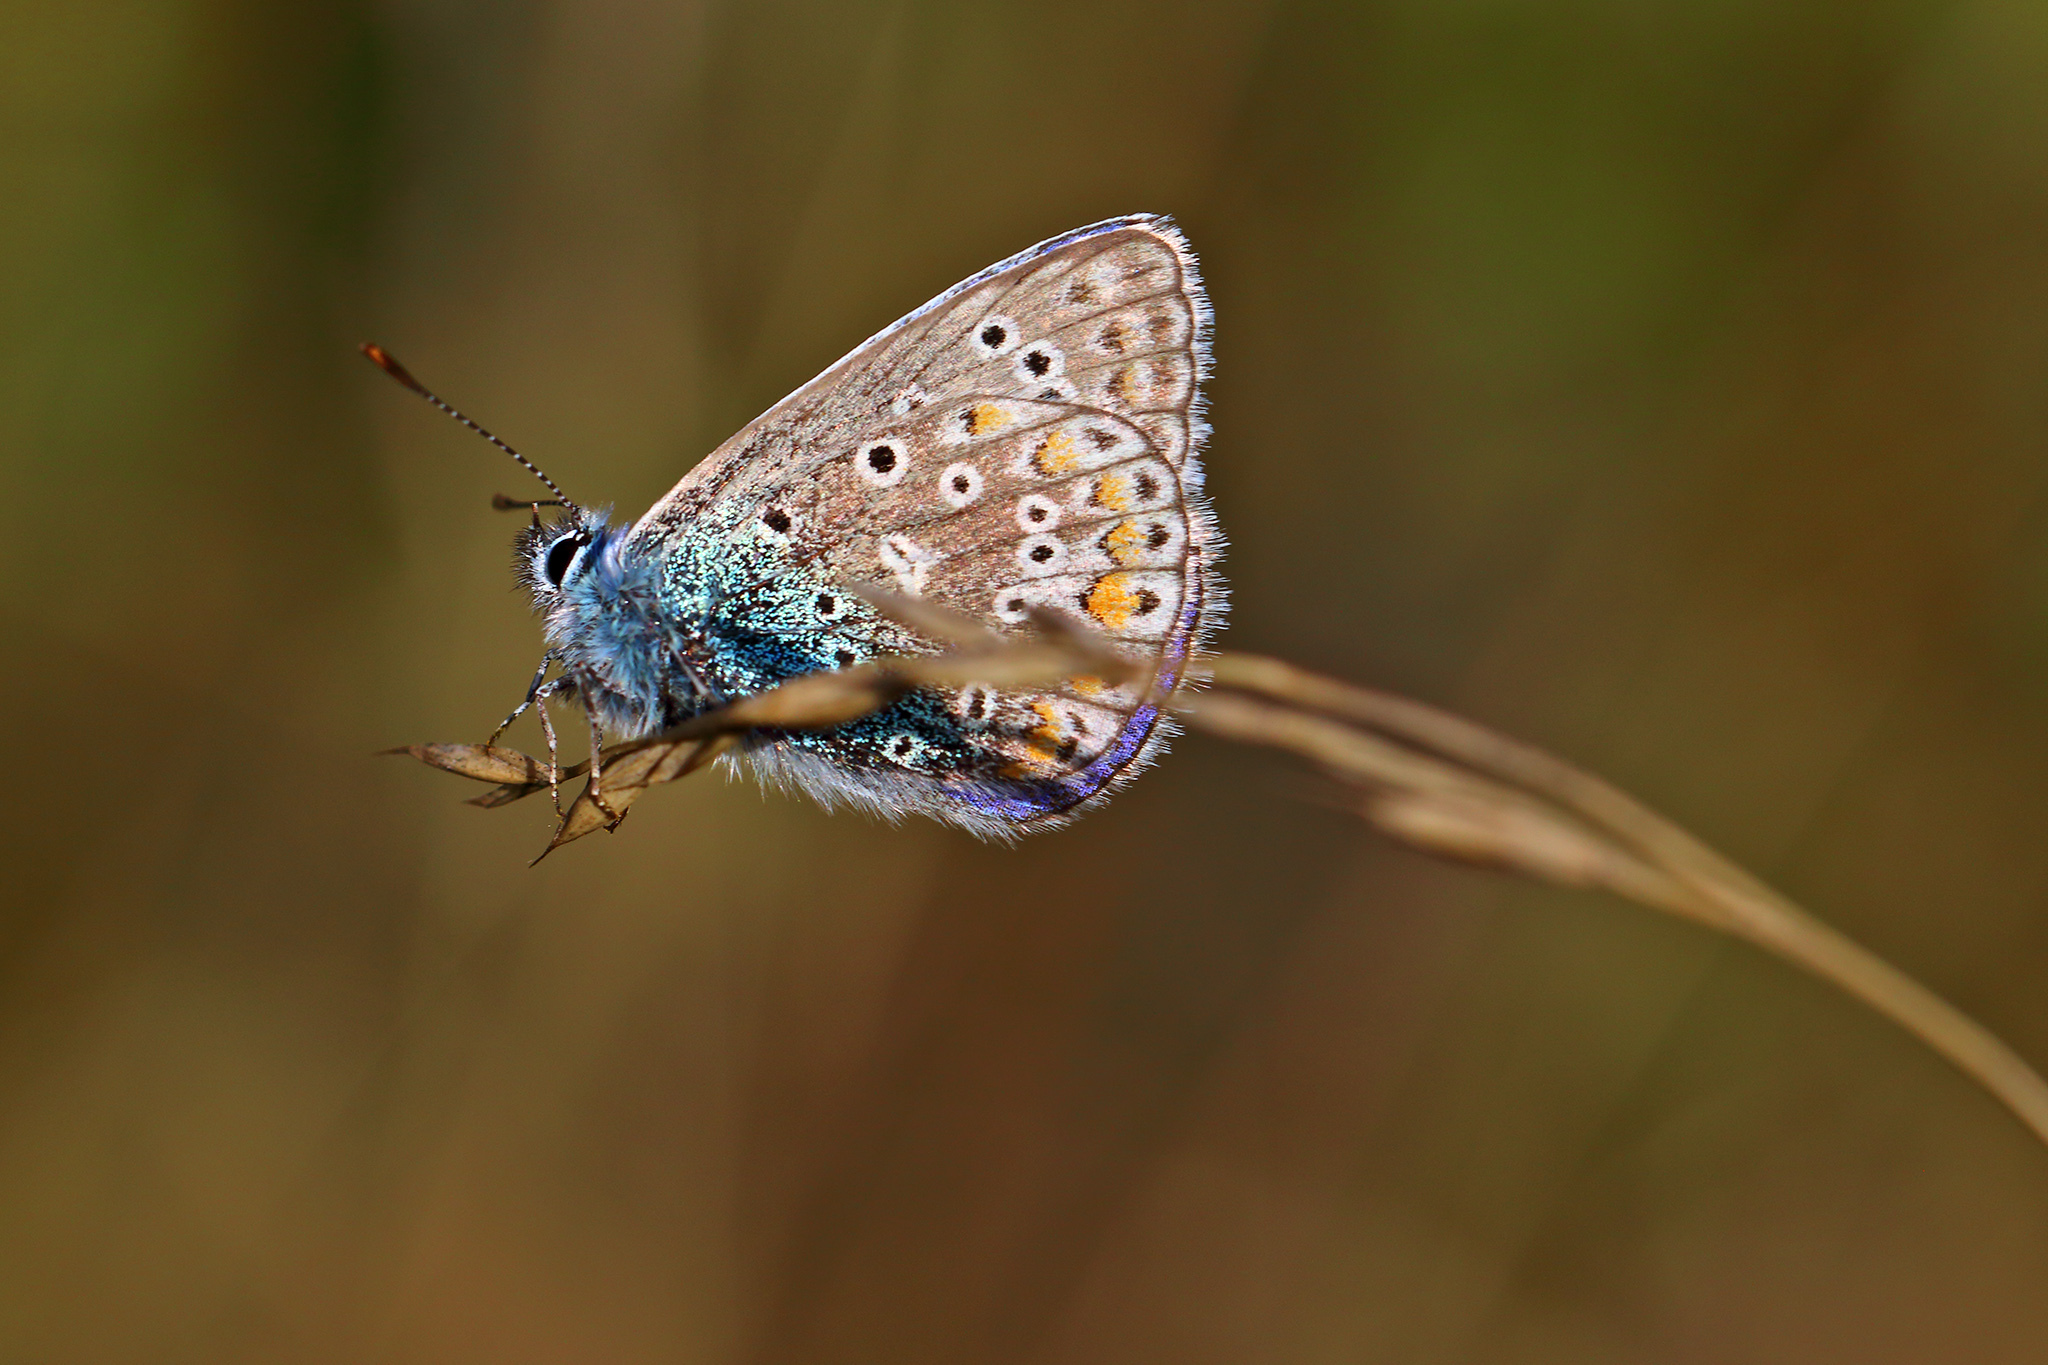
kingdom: Animalia
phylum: Arthropoda
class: Insecta
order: Lepidoptera
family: Lycaenidae
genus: Polyommatus
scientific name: Polyommatus icarus
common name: Common blue
